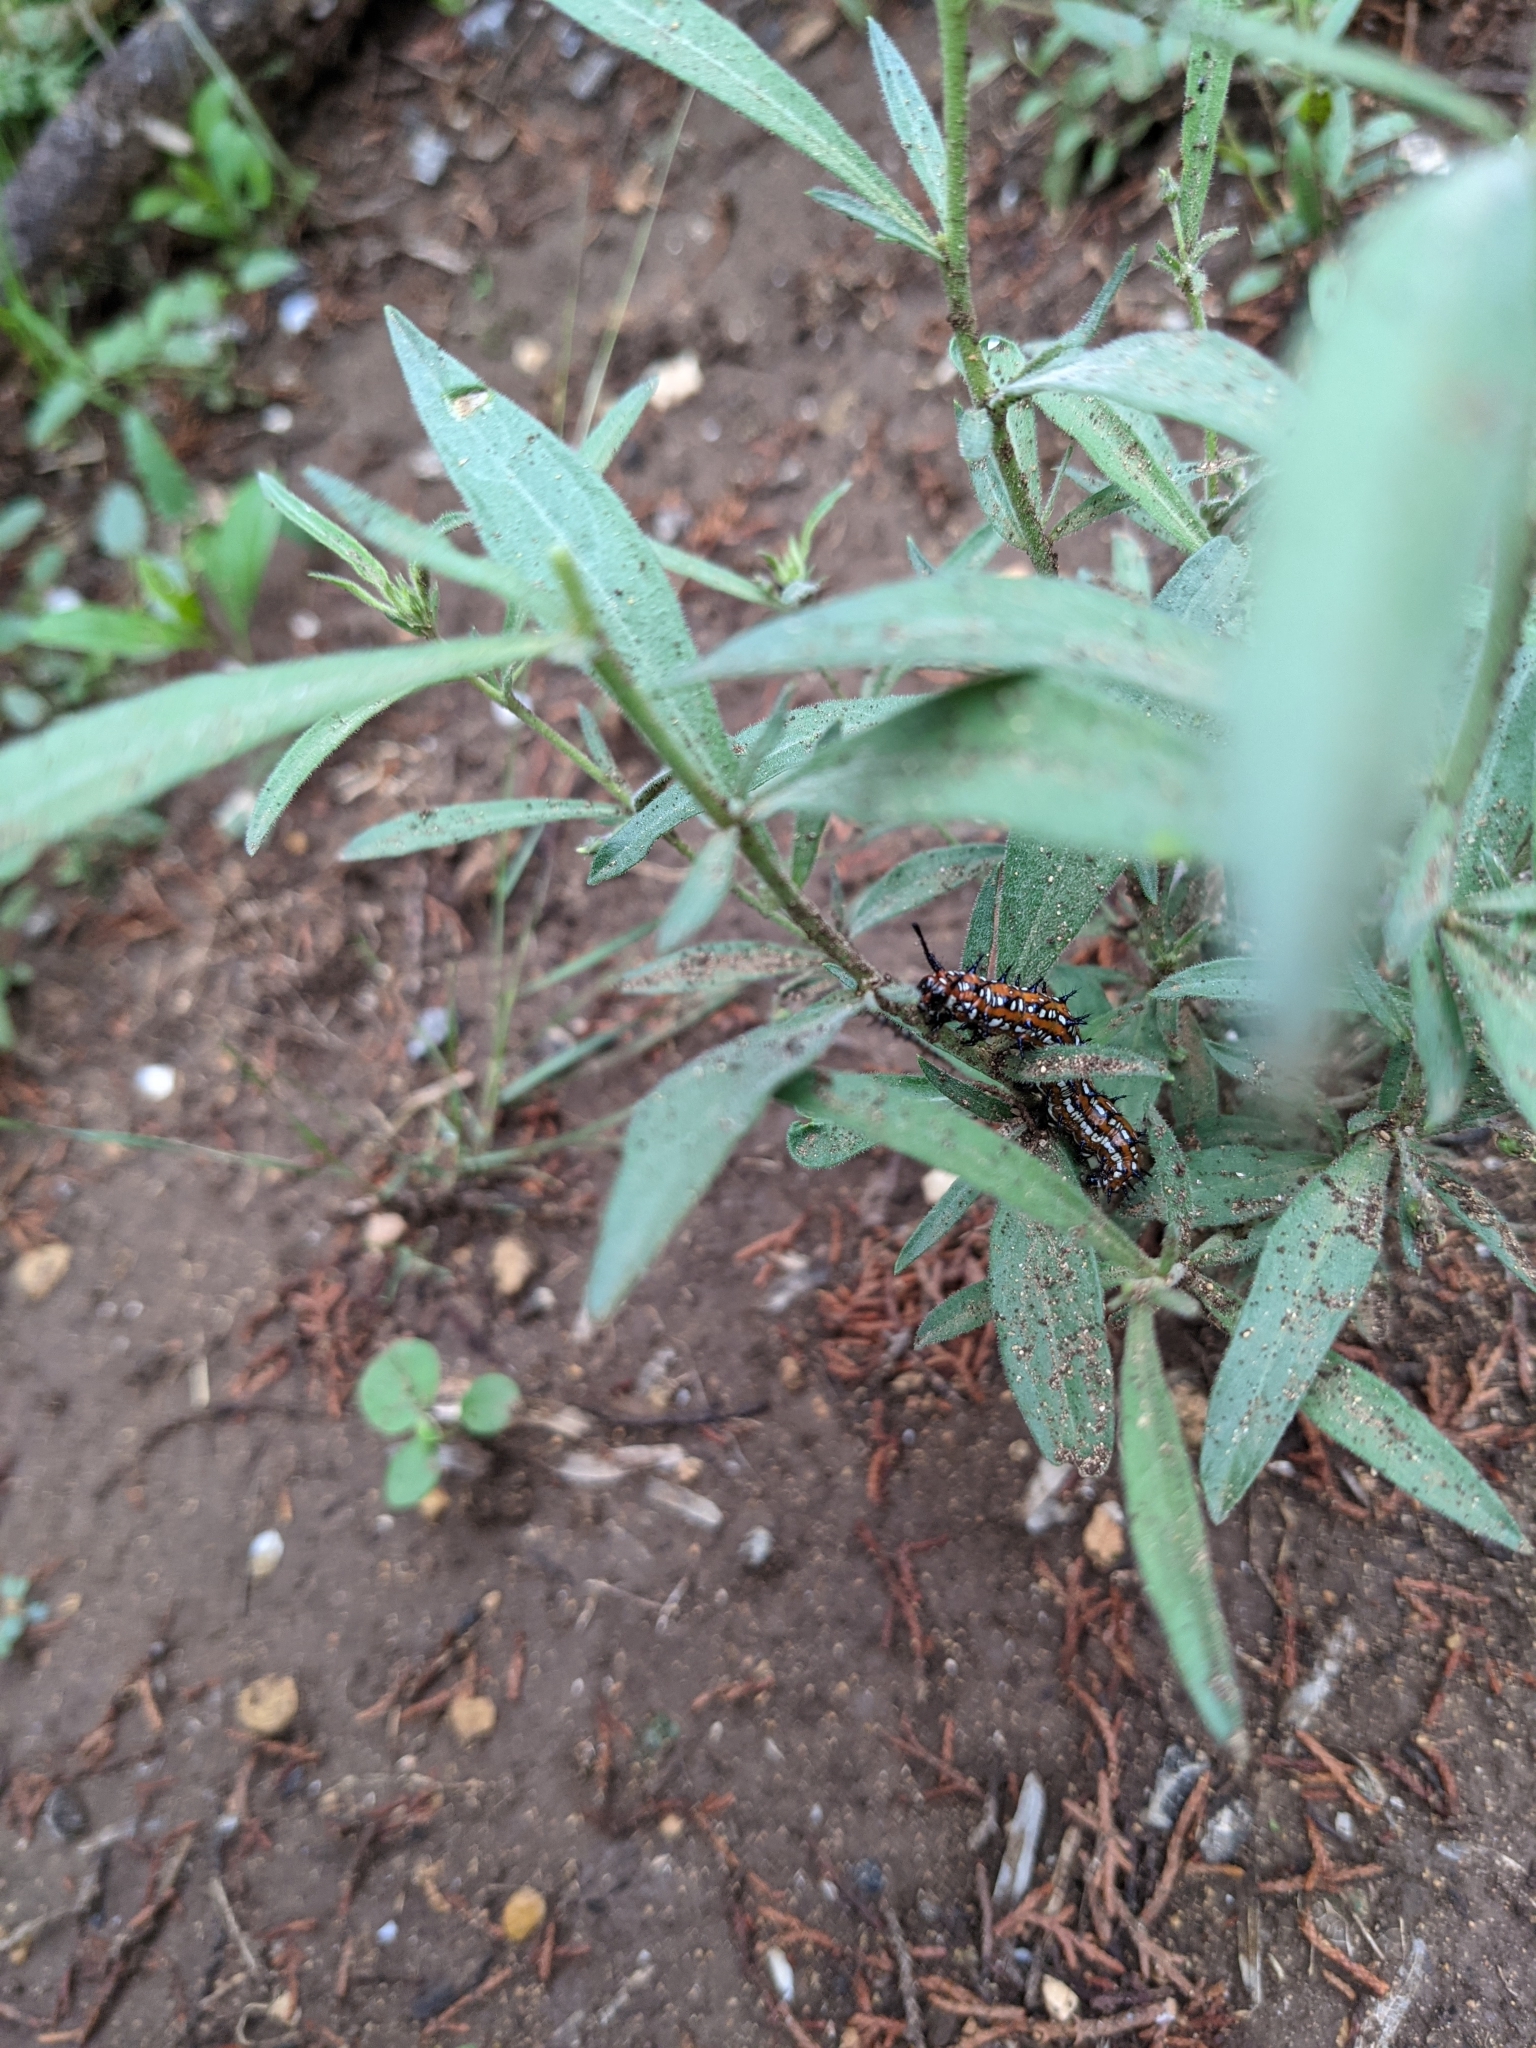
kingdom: Animalia
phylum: Arthropoda
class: Insecta
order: Lepidoptera
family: Nymphalidae
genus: Euptoieta
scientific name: Euptoieta claudia
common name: Variegated fritillary
